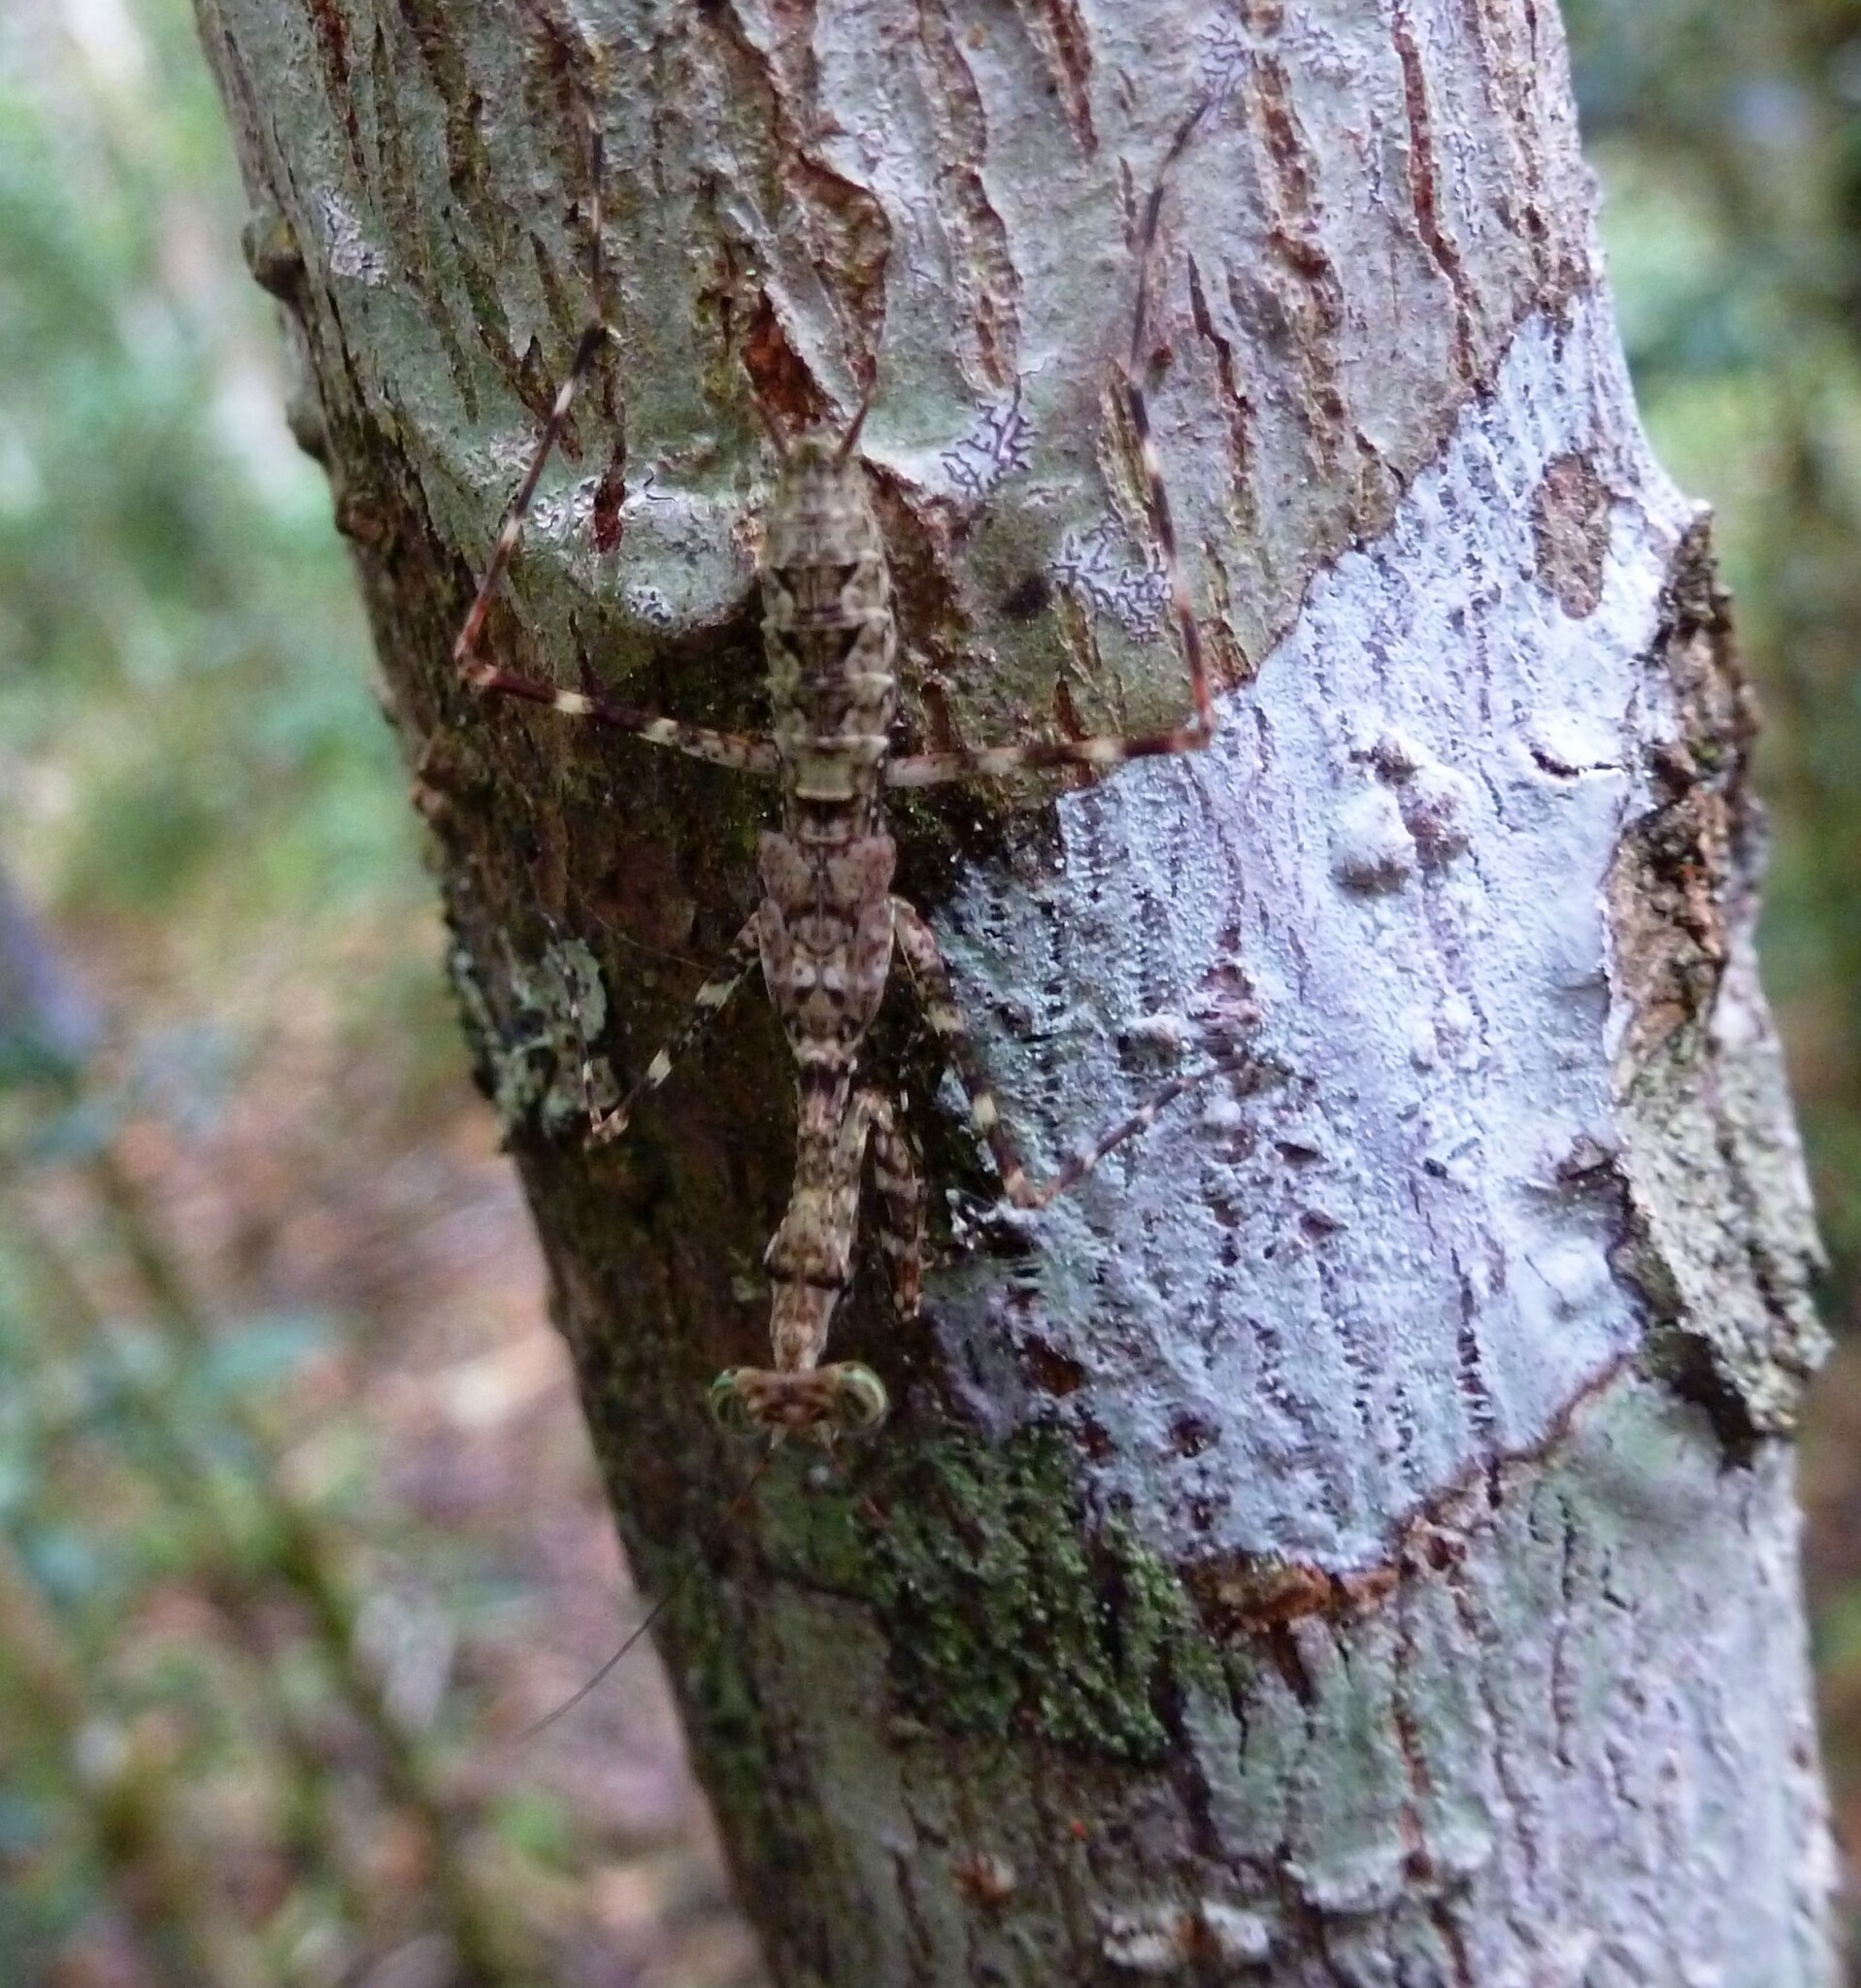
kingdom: Animalia
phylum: Arthropoda
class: Insecta
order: Mantodea
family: Majangidae
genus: Liturgusella
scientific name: Liturgusella malagassa
